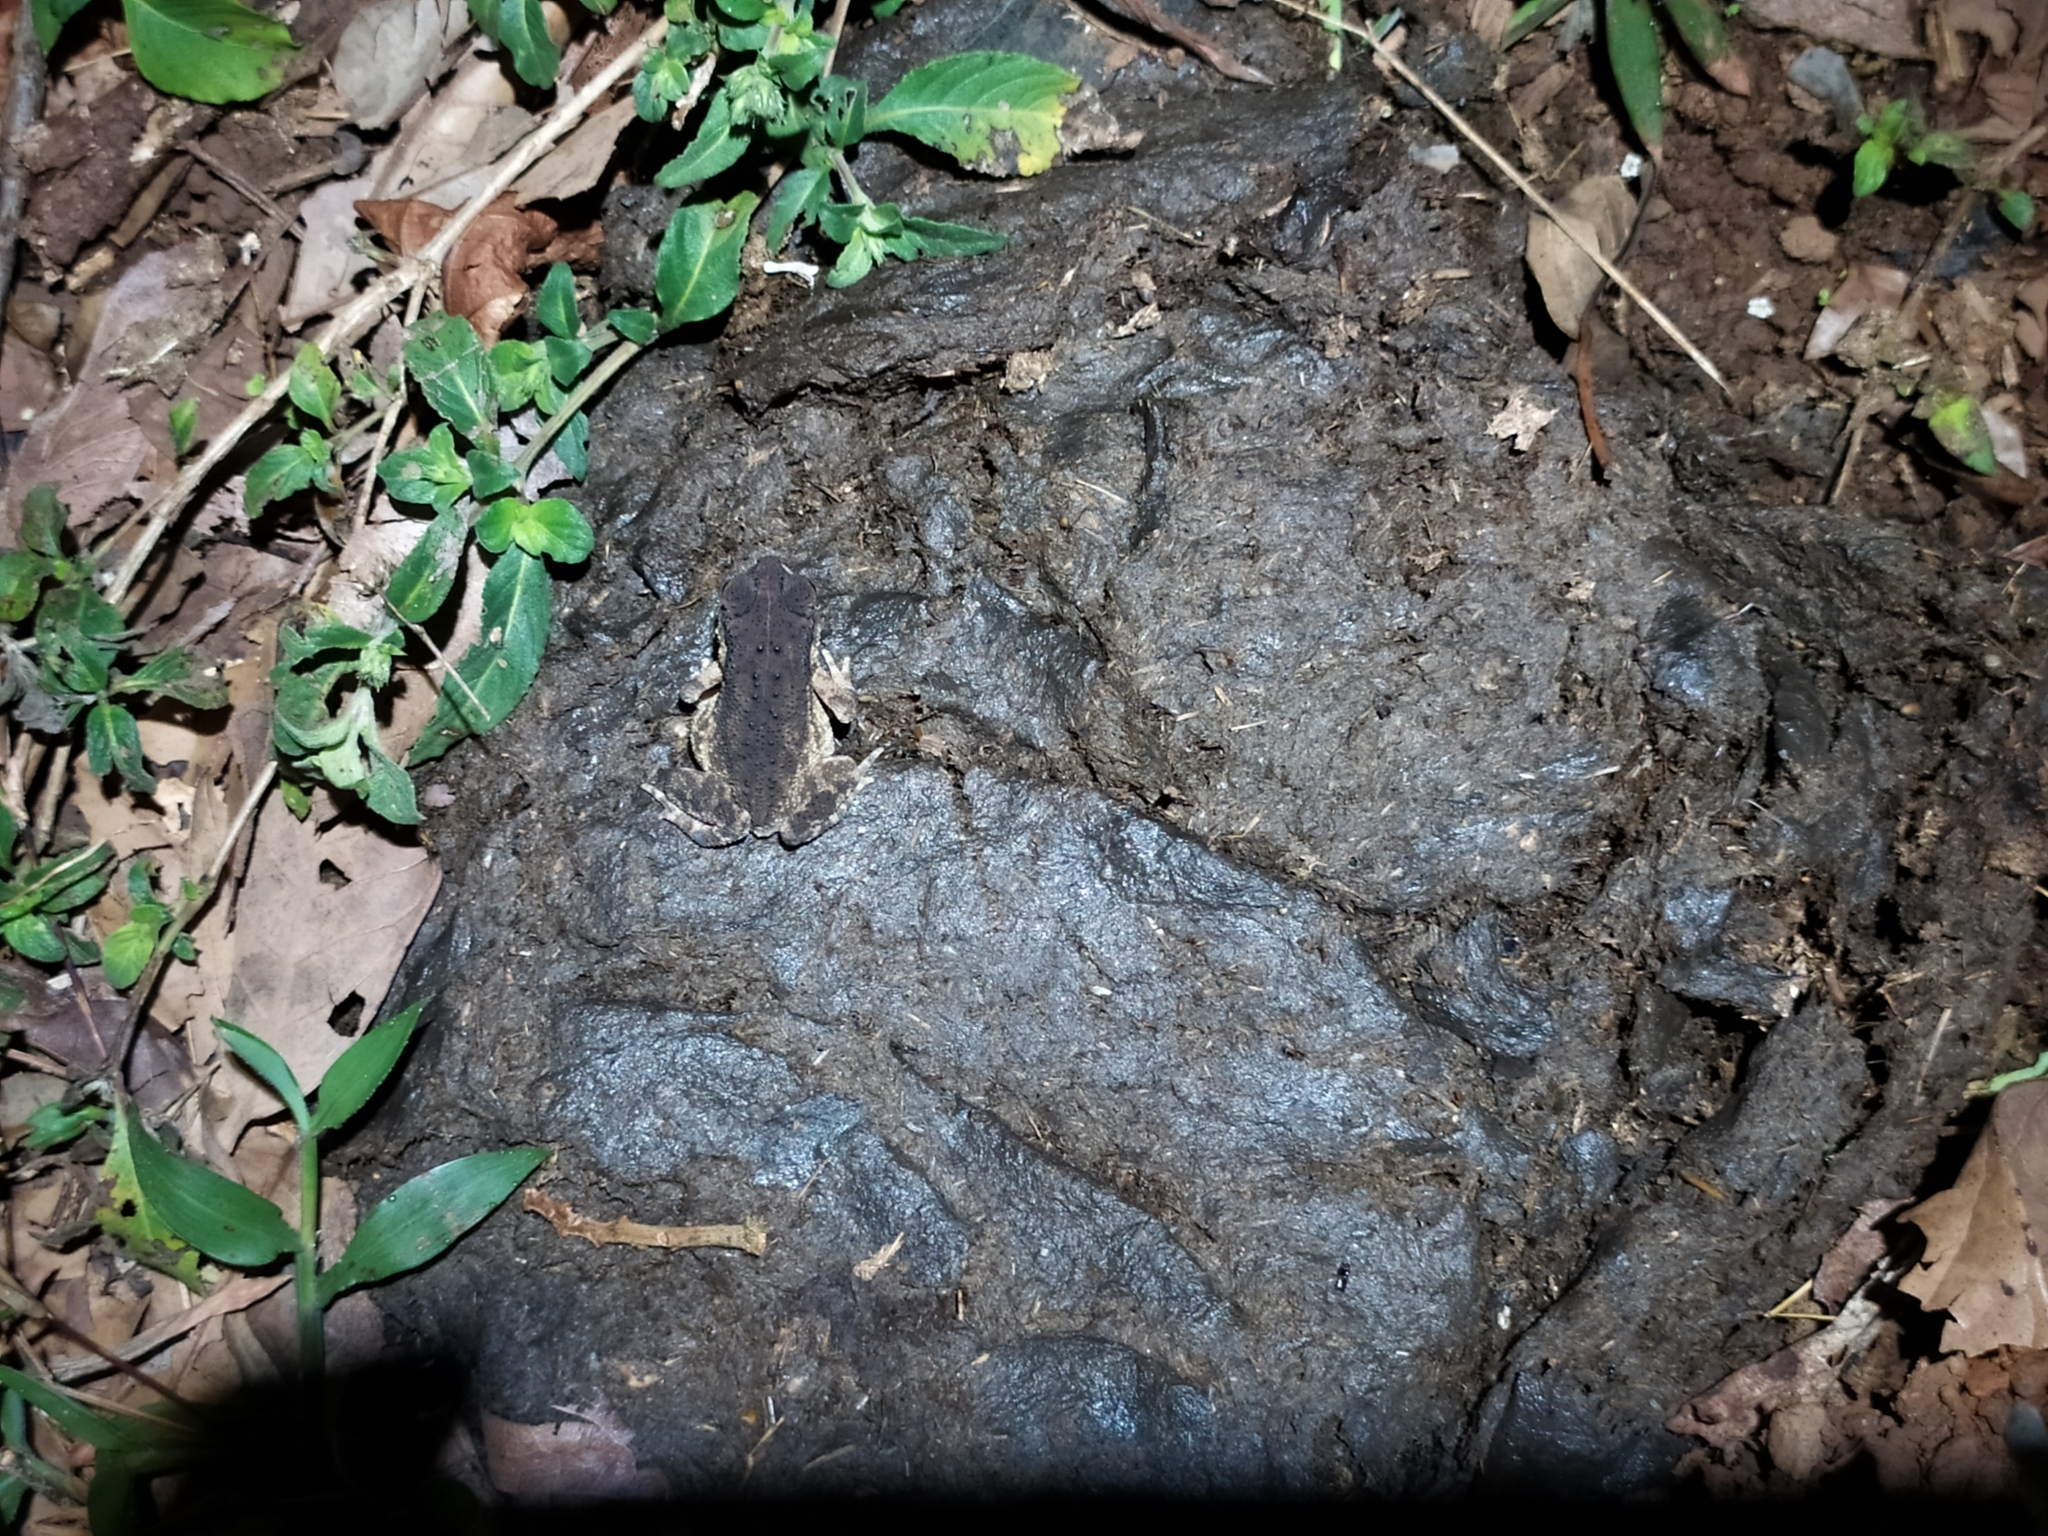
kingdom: Animalia
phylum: Chordata
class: Amphibia
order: Anura
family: Bufonidae
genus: Duttaphrynus
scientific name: Duttaphrynus melanostictus
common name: Common sunda toad
